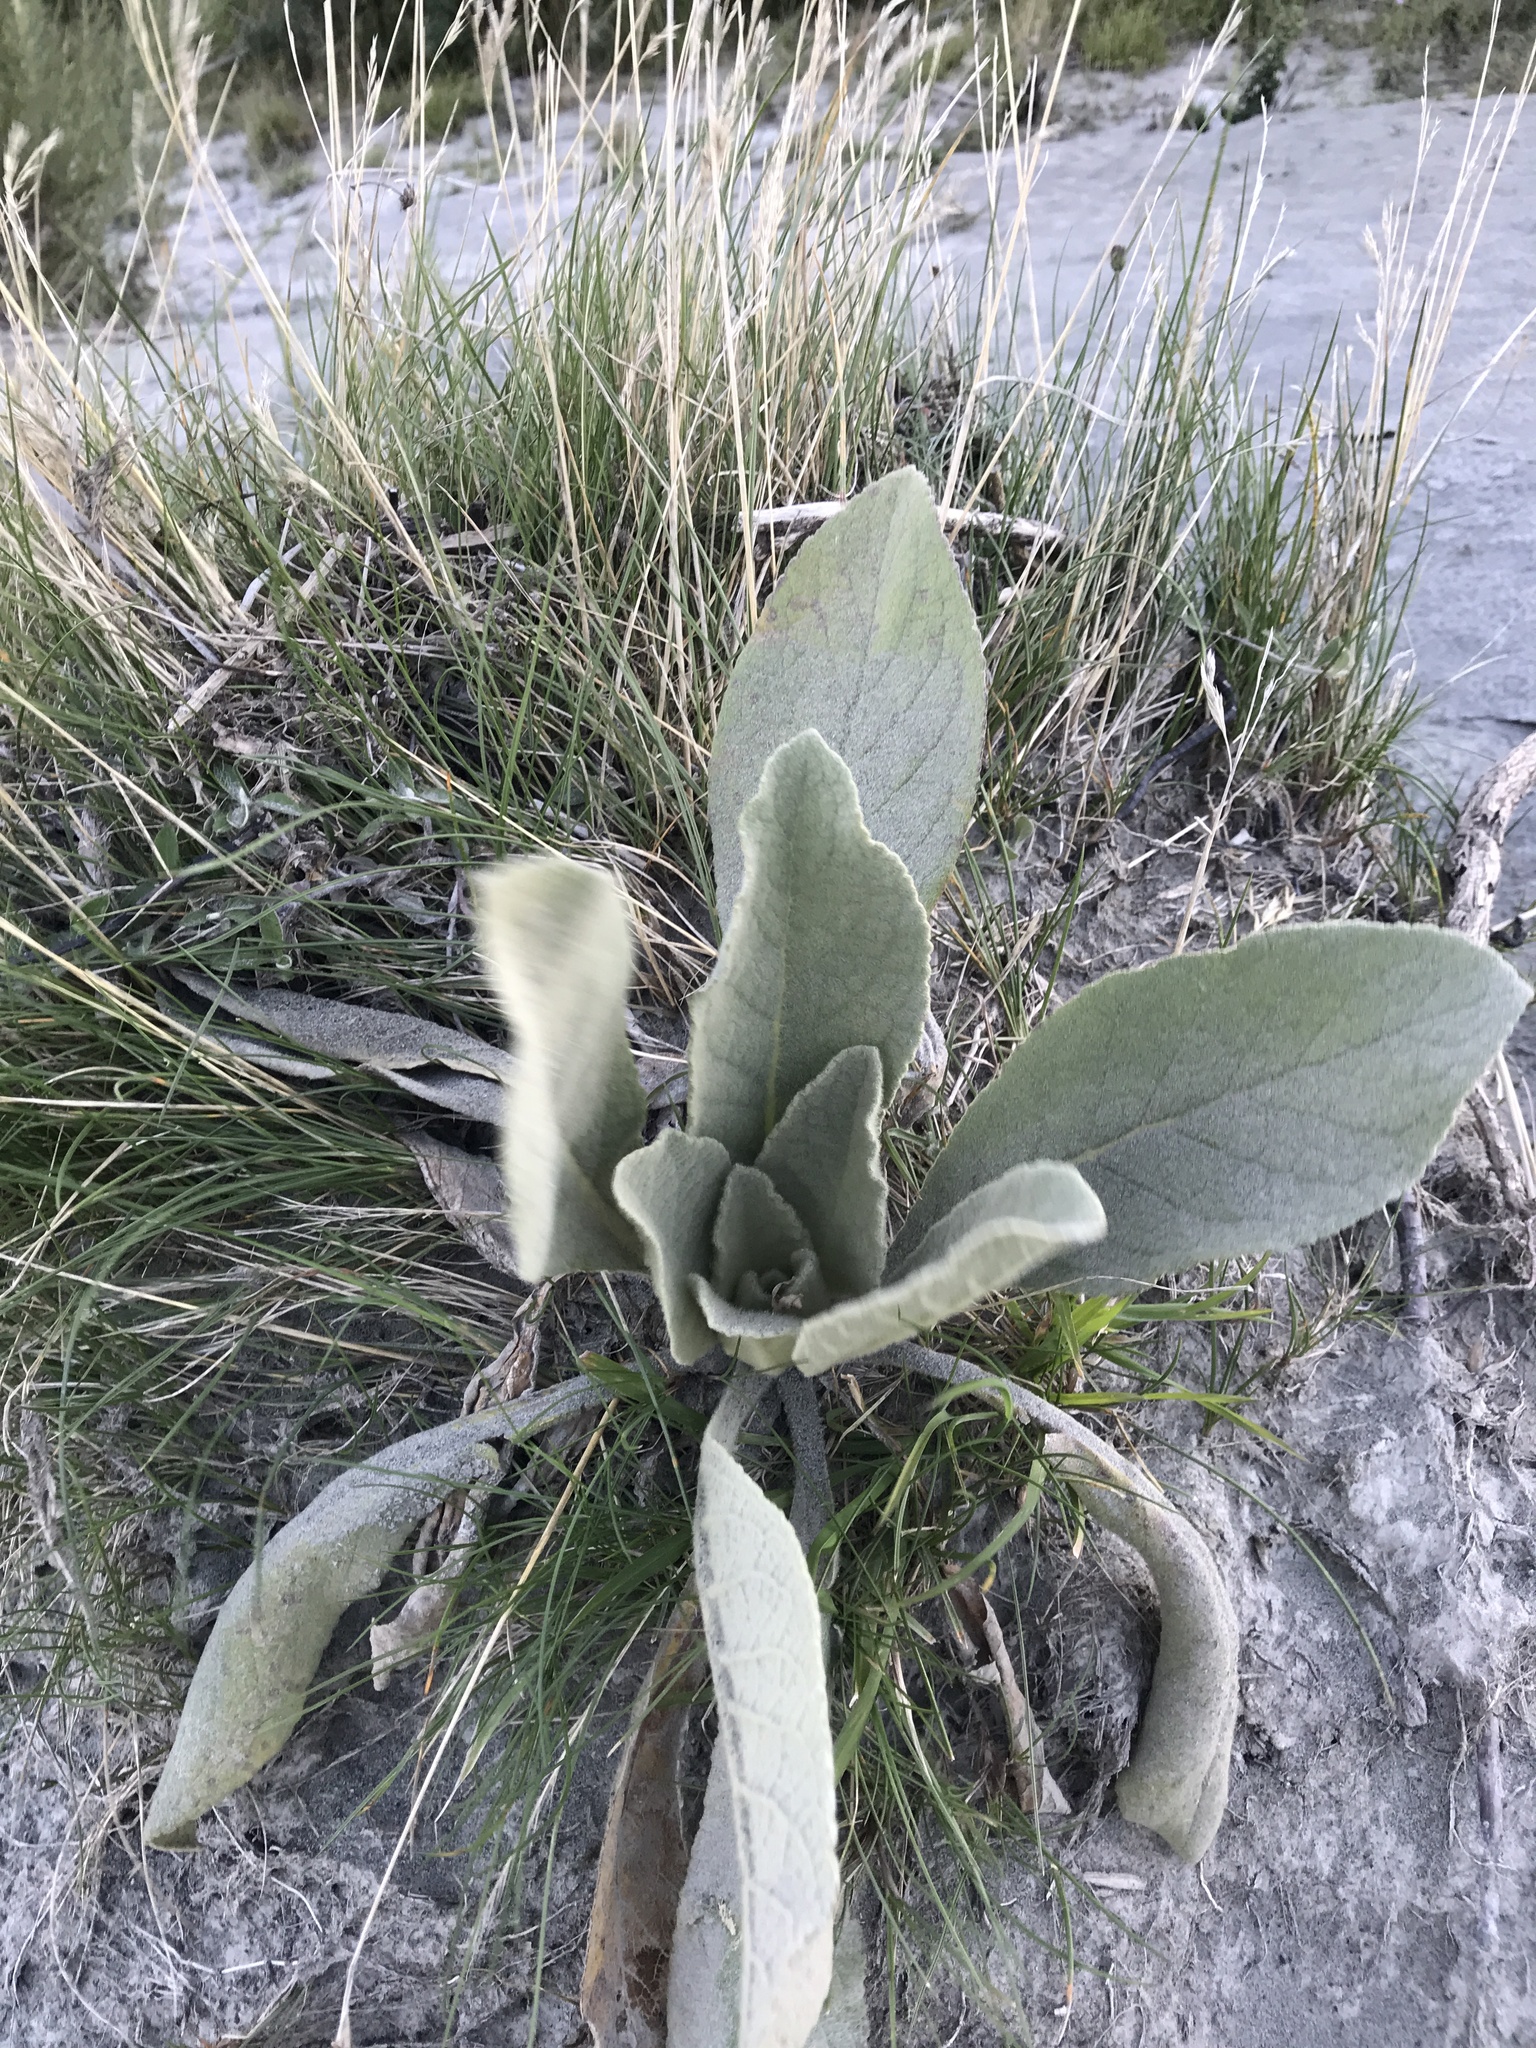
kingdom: Plantae
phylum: Tracheophyta
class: Magnoliopsida
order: Lamiales
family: Scrophulariaceae
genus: Verbascum
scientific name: Verbascum thapsus
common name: Common mullein
